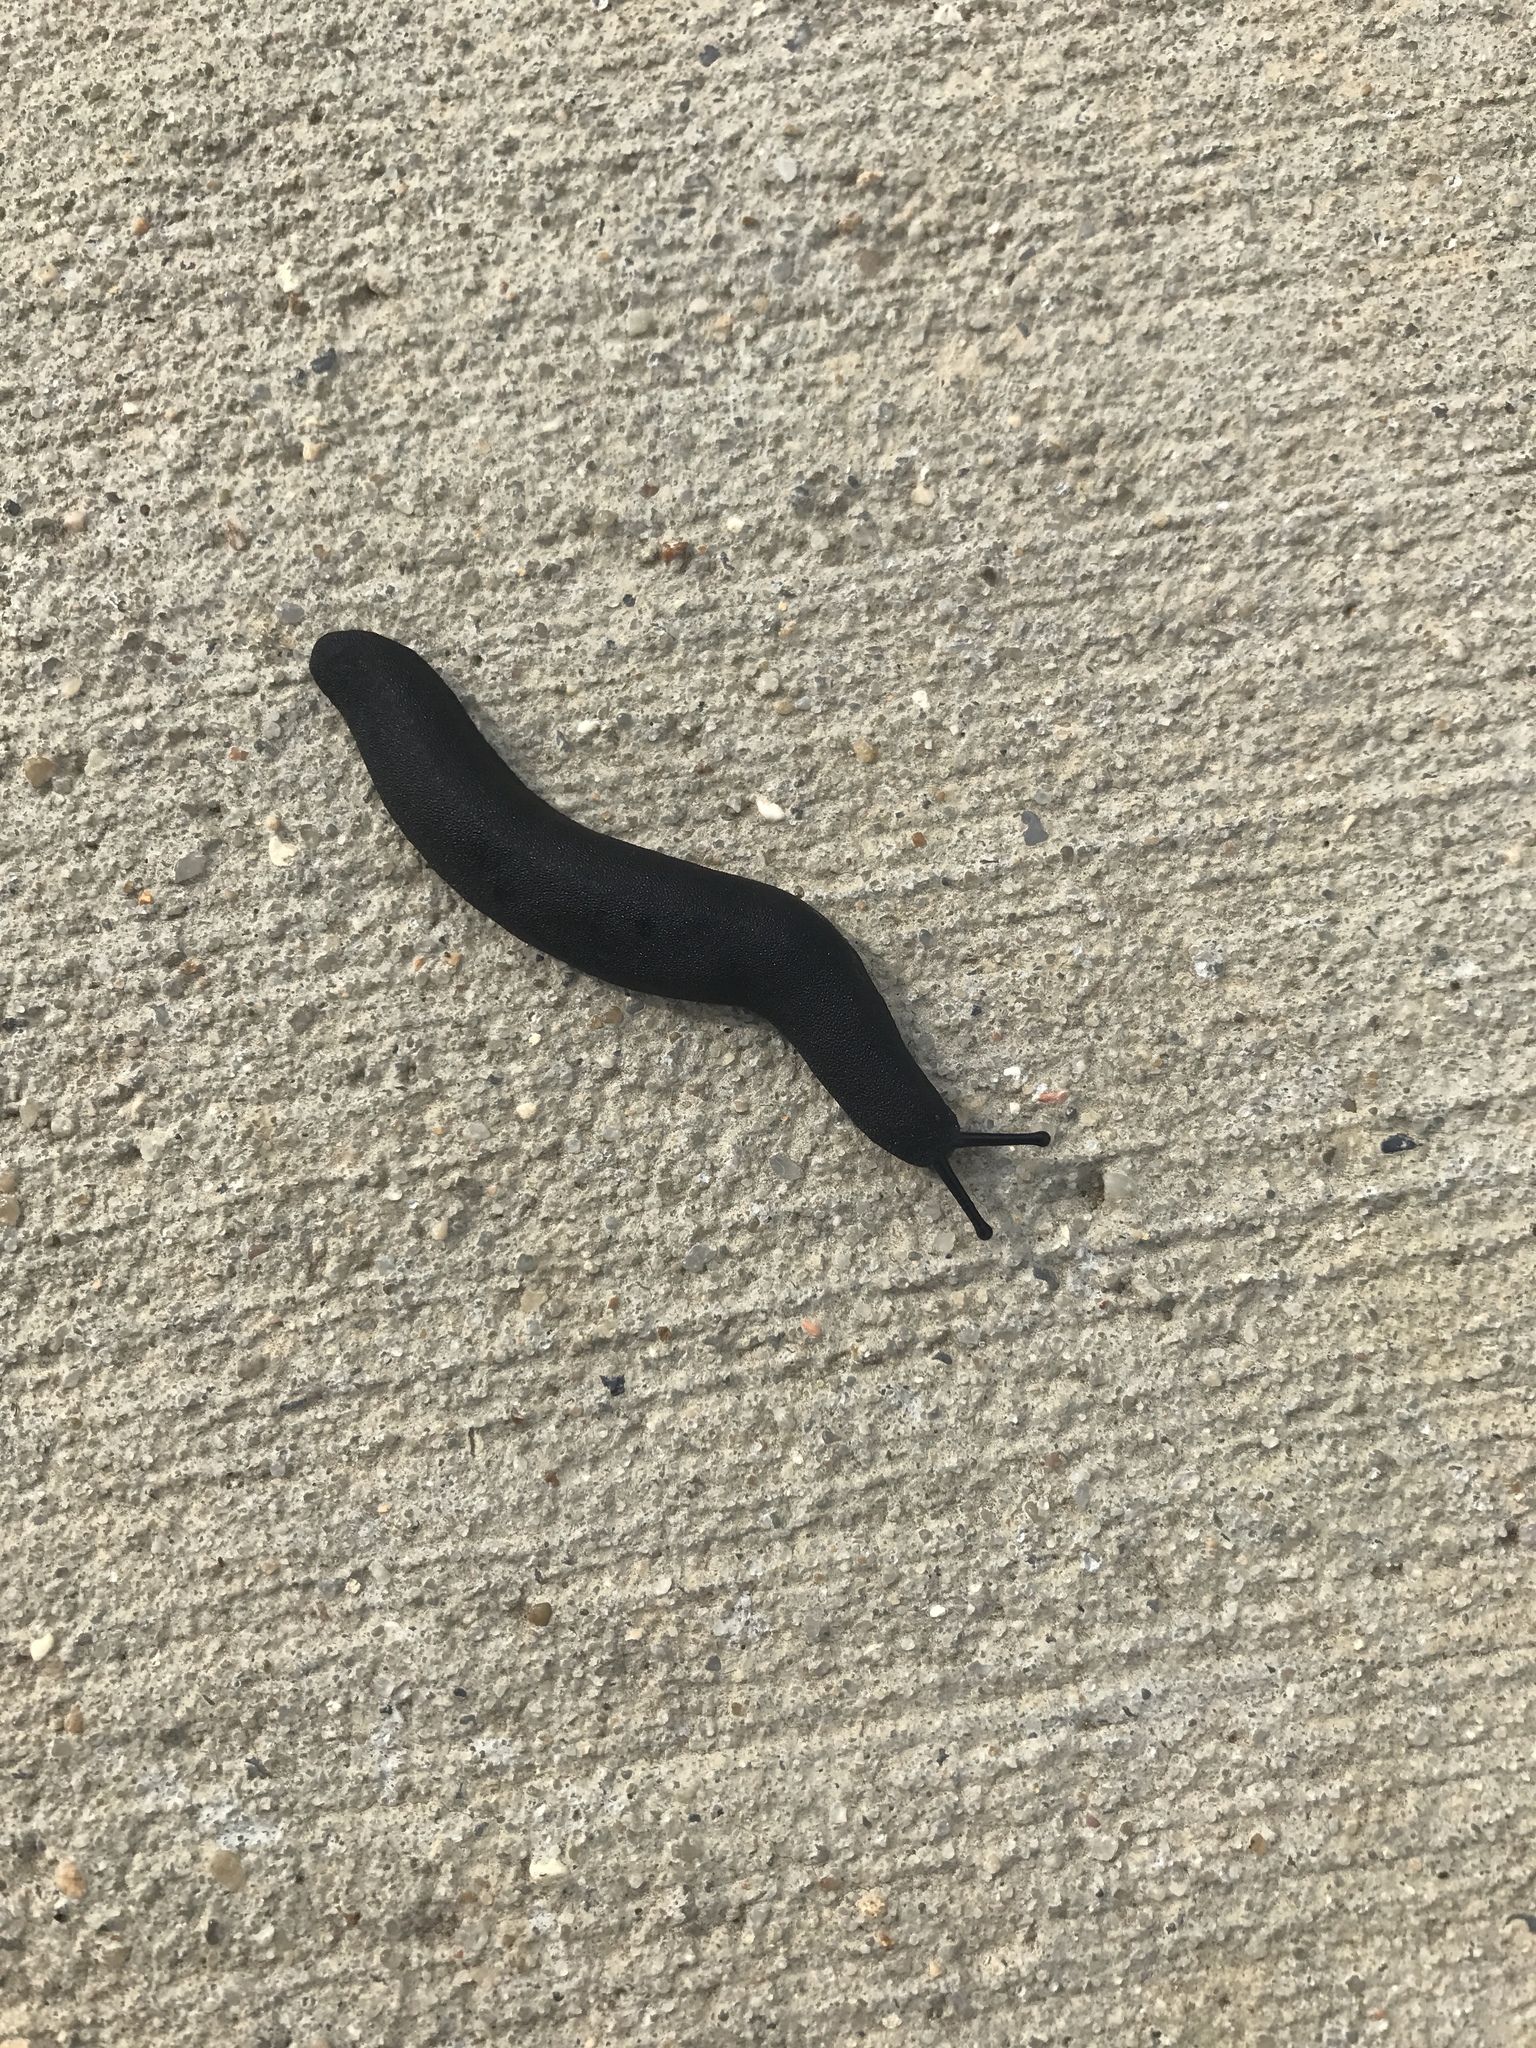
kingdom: Animalia
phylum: Mollusca
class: Gastropoda
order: Systellommatophora
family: Veronicellidae
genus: Belocaulus
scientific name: Belocaulus angustipes
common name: Black velvet leatherleaf slug
